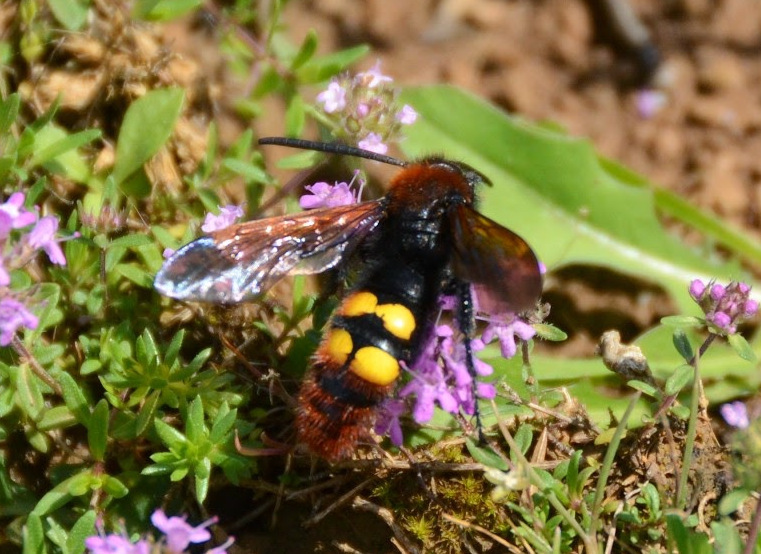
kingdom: Animalia
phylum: Arthropoda
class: Insecta
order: Hymenoptera
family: Scoliidae
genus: Megascolia
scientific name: Megascolia maculata
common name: Mammoth wasp
